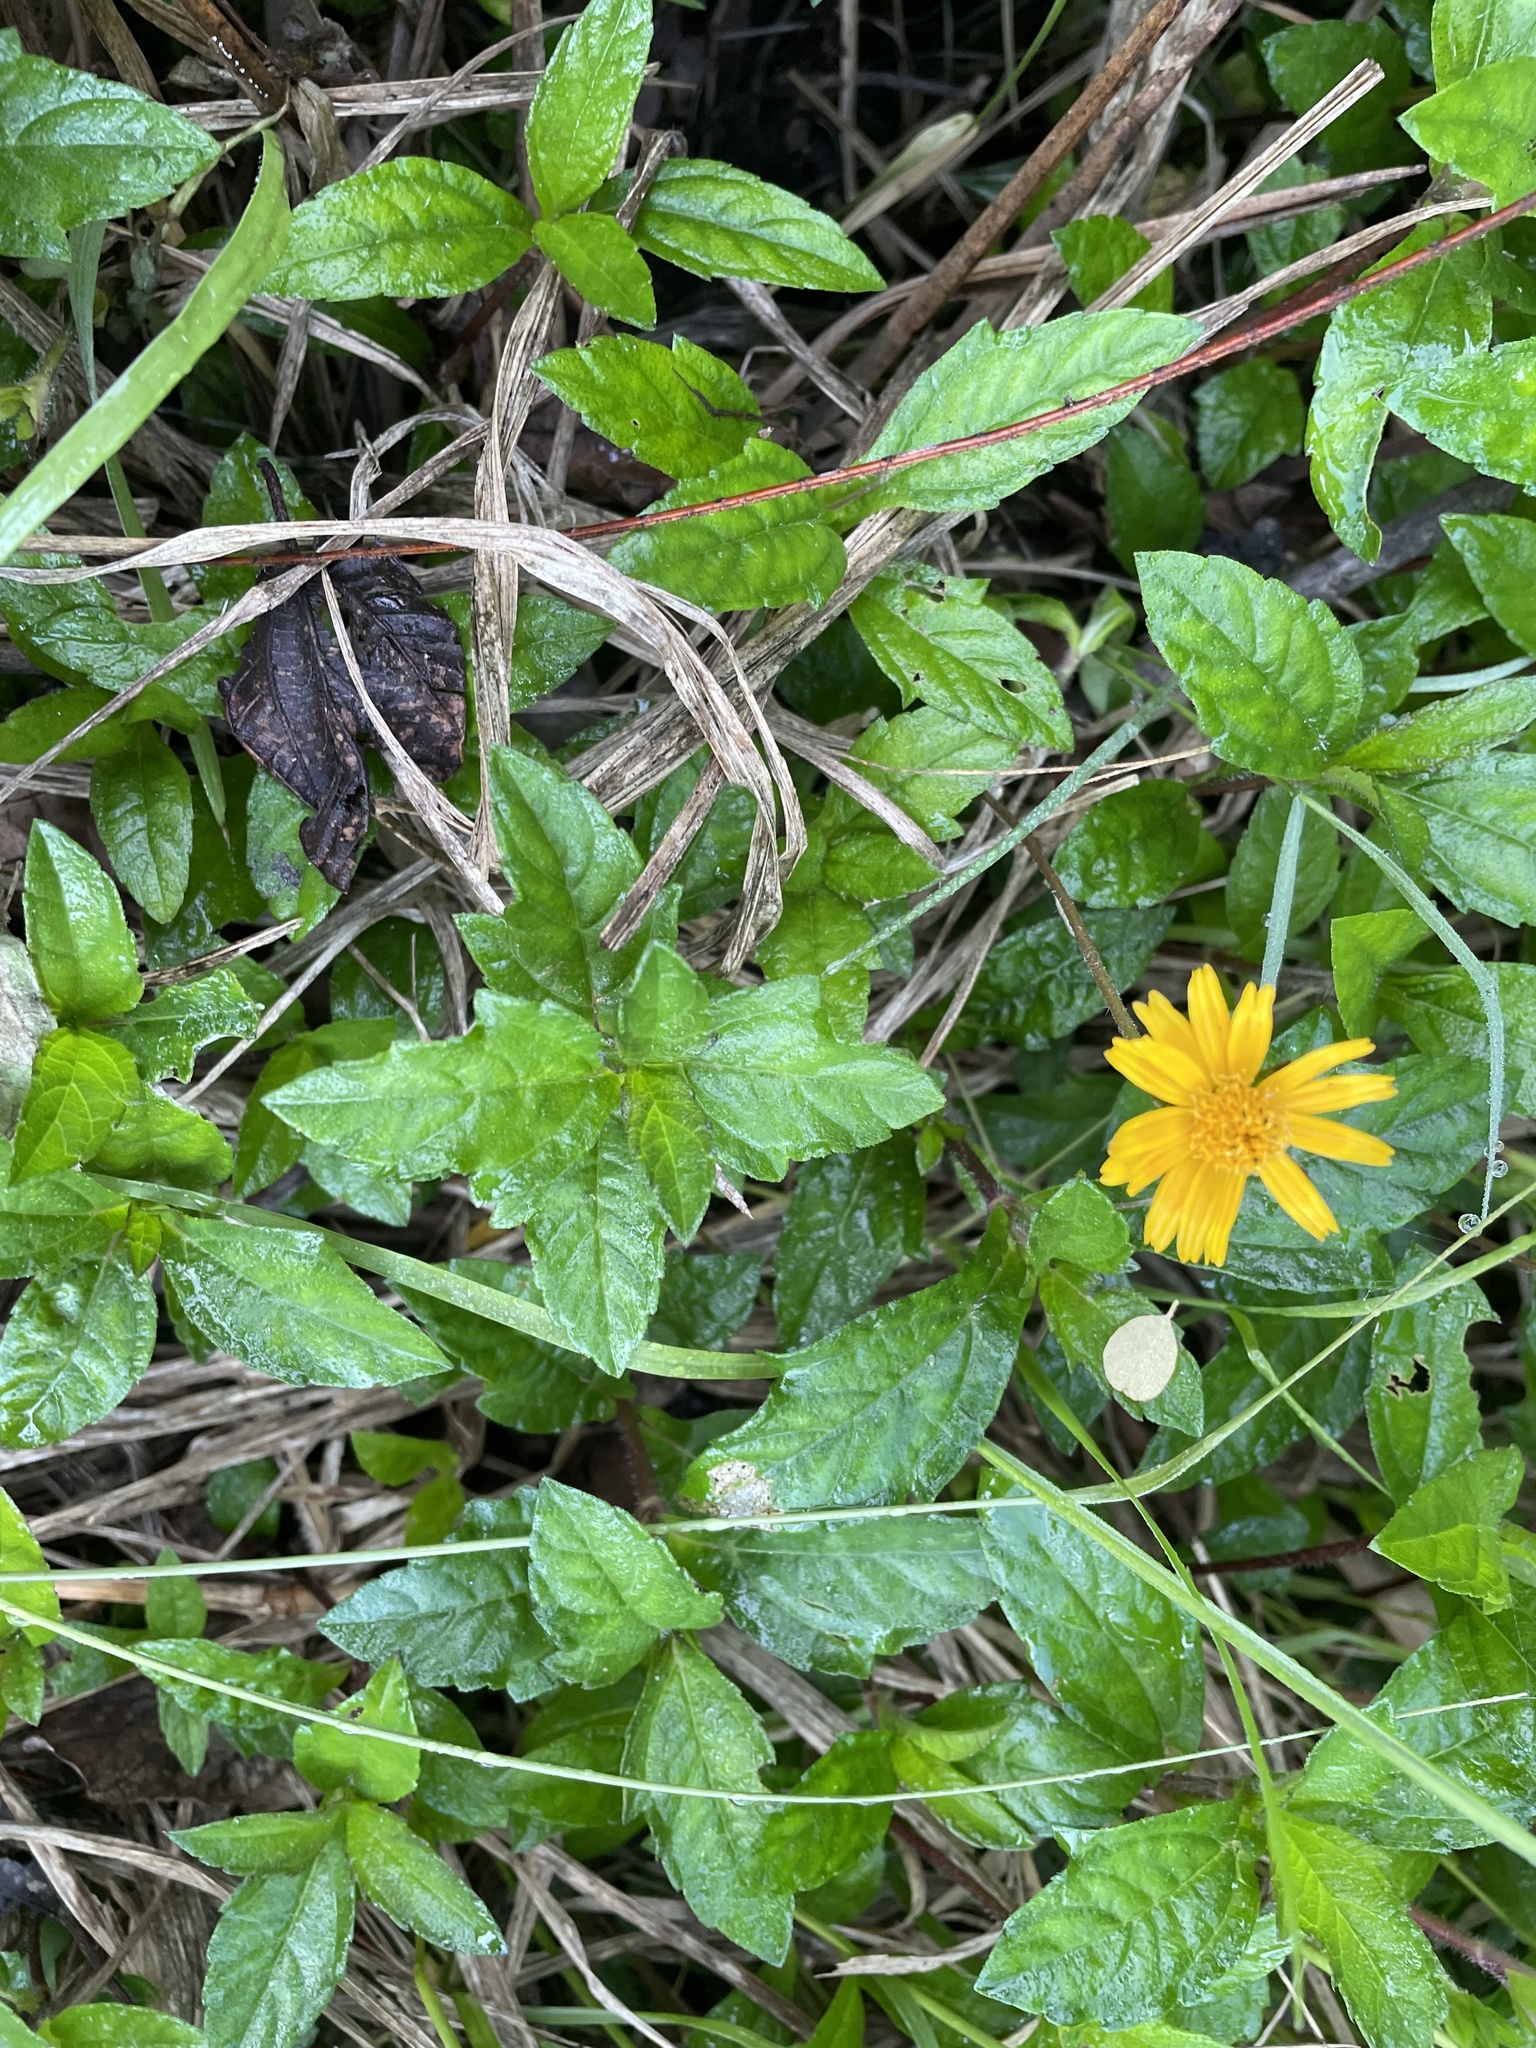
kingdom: Plantae
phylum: Tracheophyta
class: Magnoliopsida
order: Asterales
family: Asteraceae
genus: Sphagneticola
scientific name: Sphagneticola trilobata
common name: Bay biscayne creeping-oxeye
